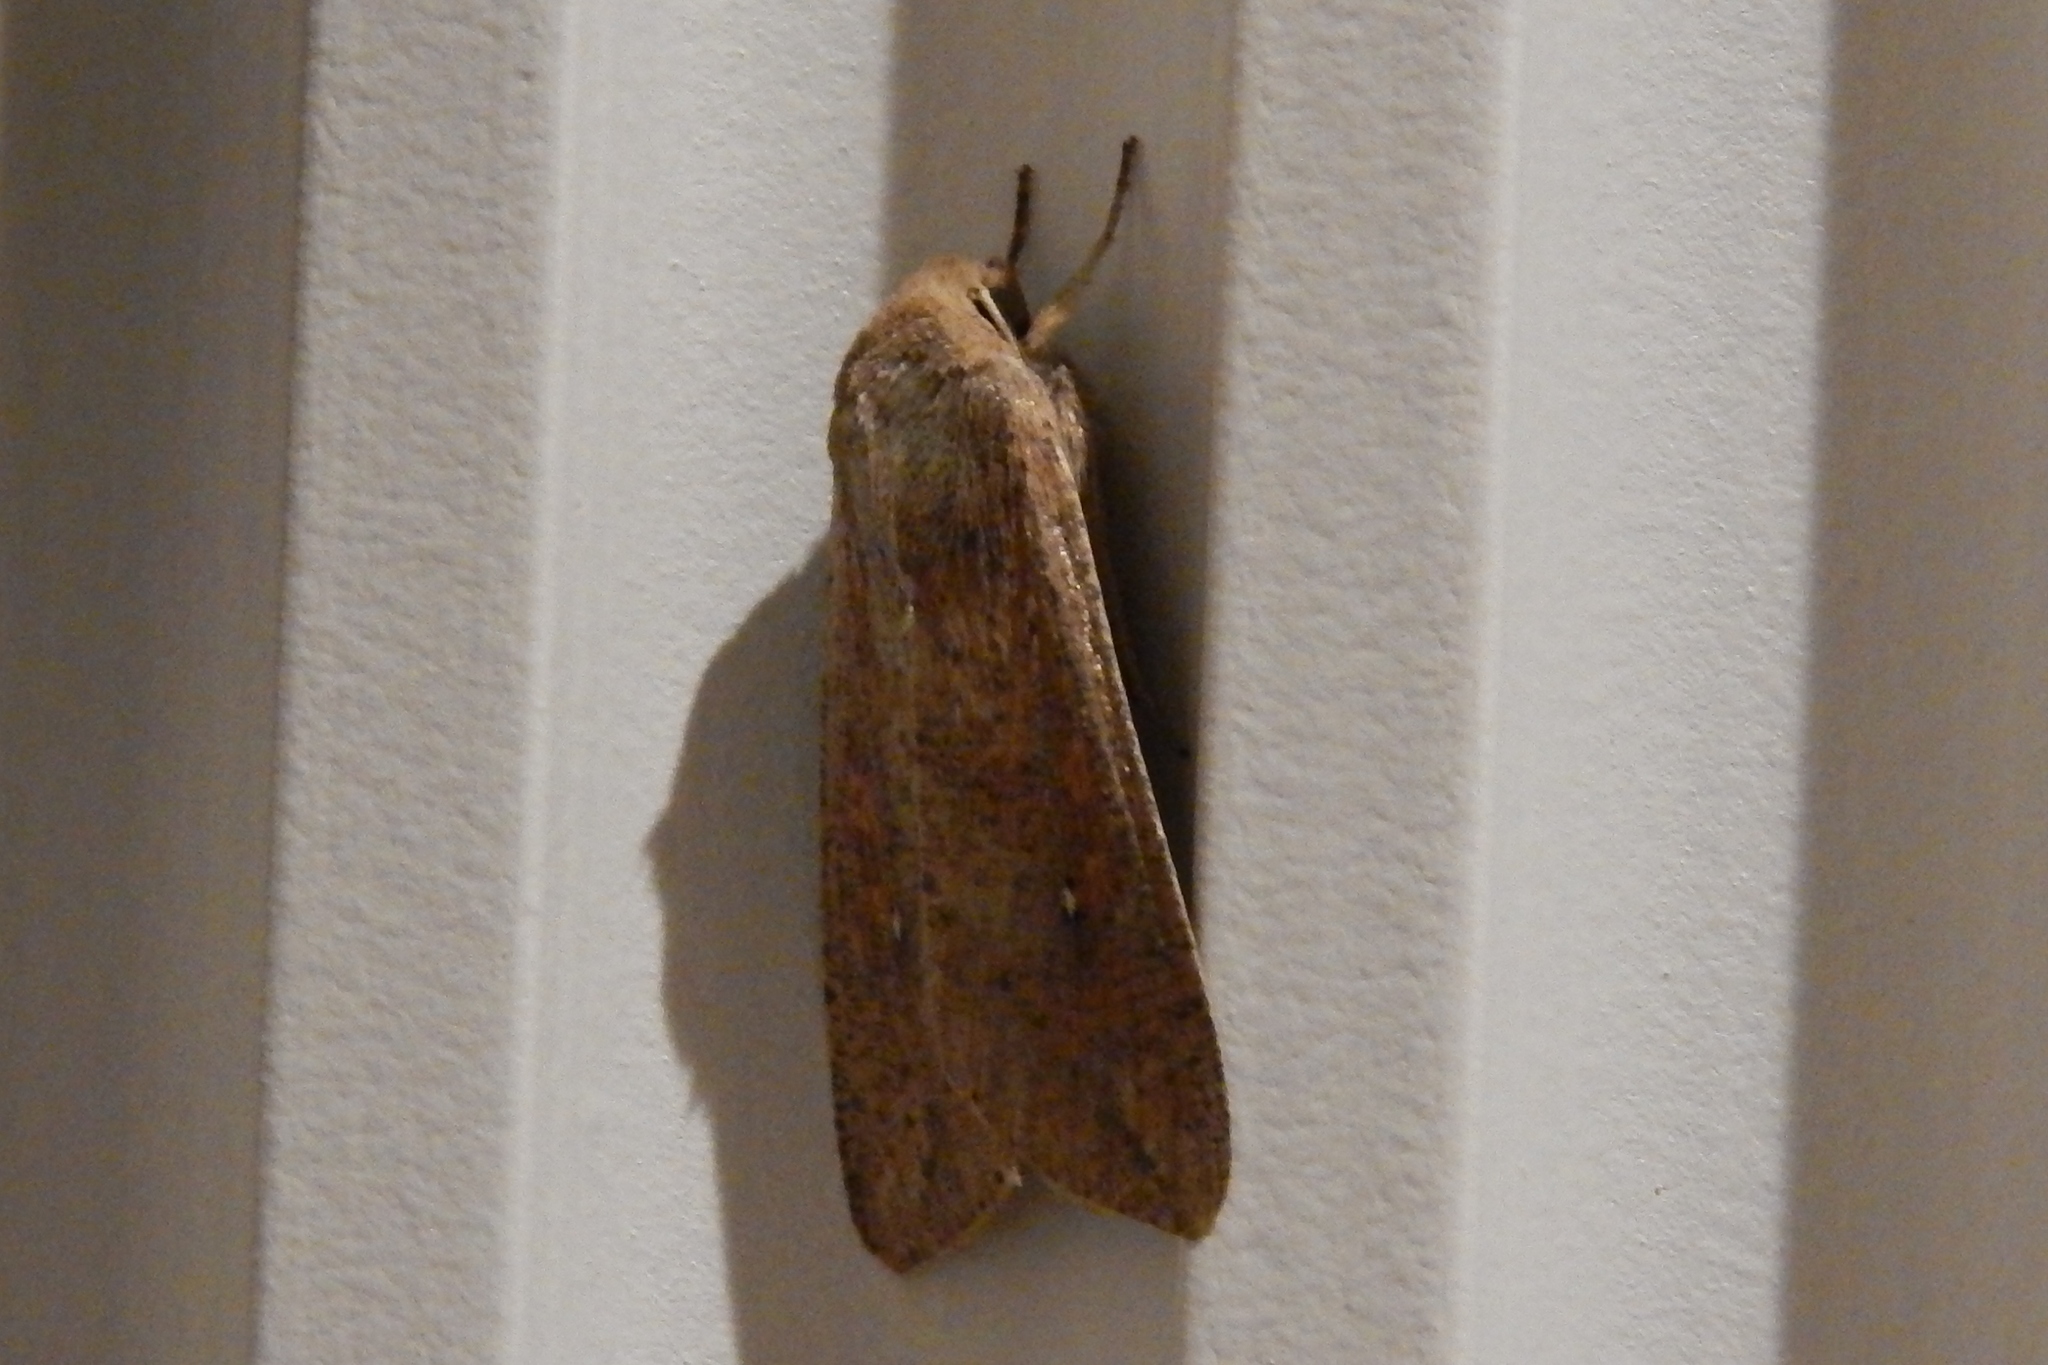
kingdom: Animalia
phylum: Arthropoda
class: Insecta
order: Lepidoptera
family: Noctuidae
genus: Mythimna
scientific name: Mythimna unipuncta
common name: White-speck
